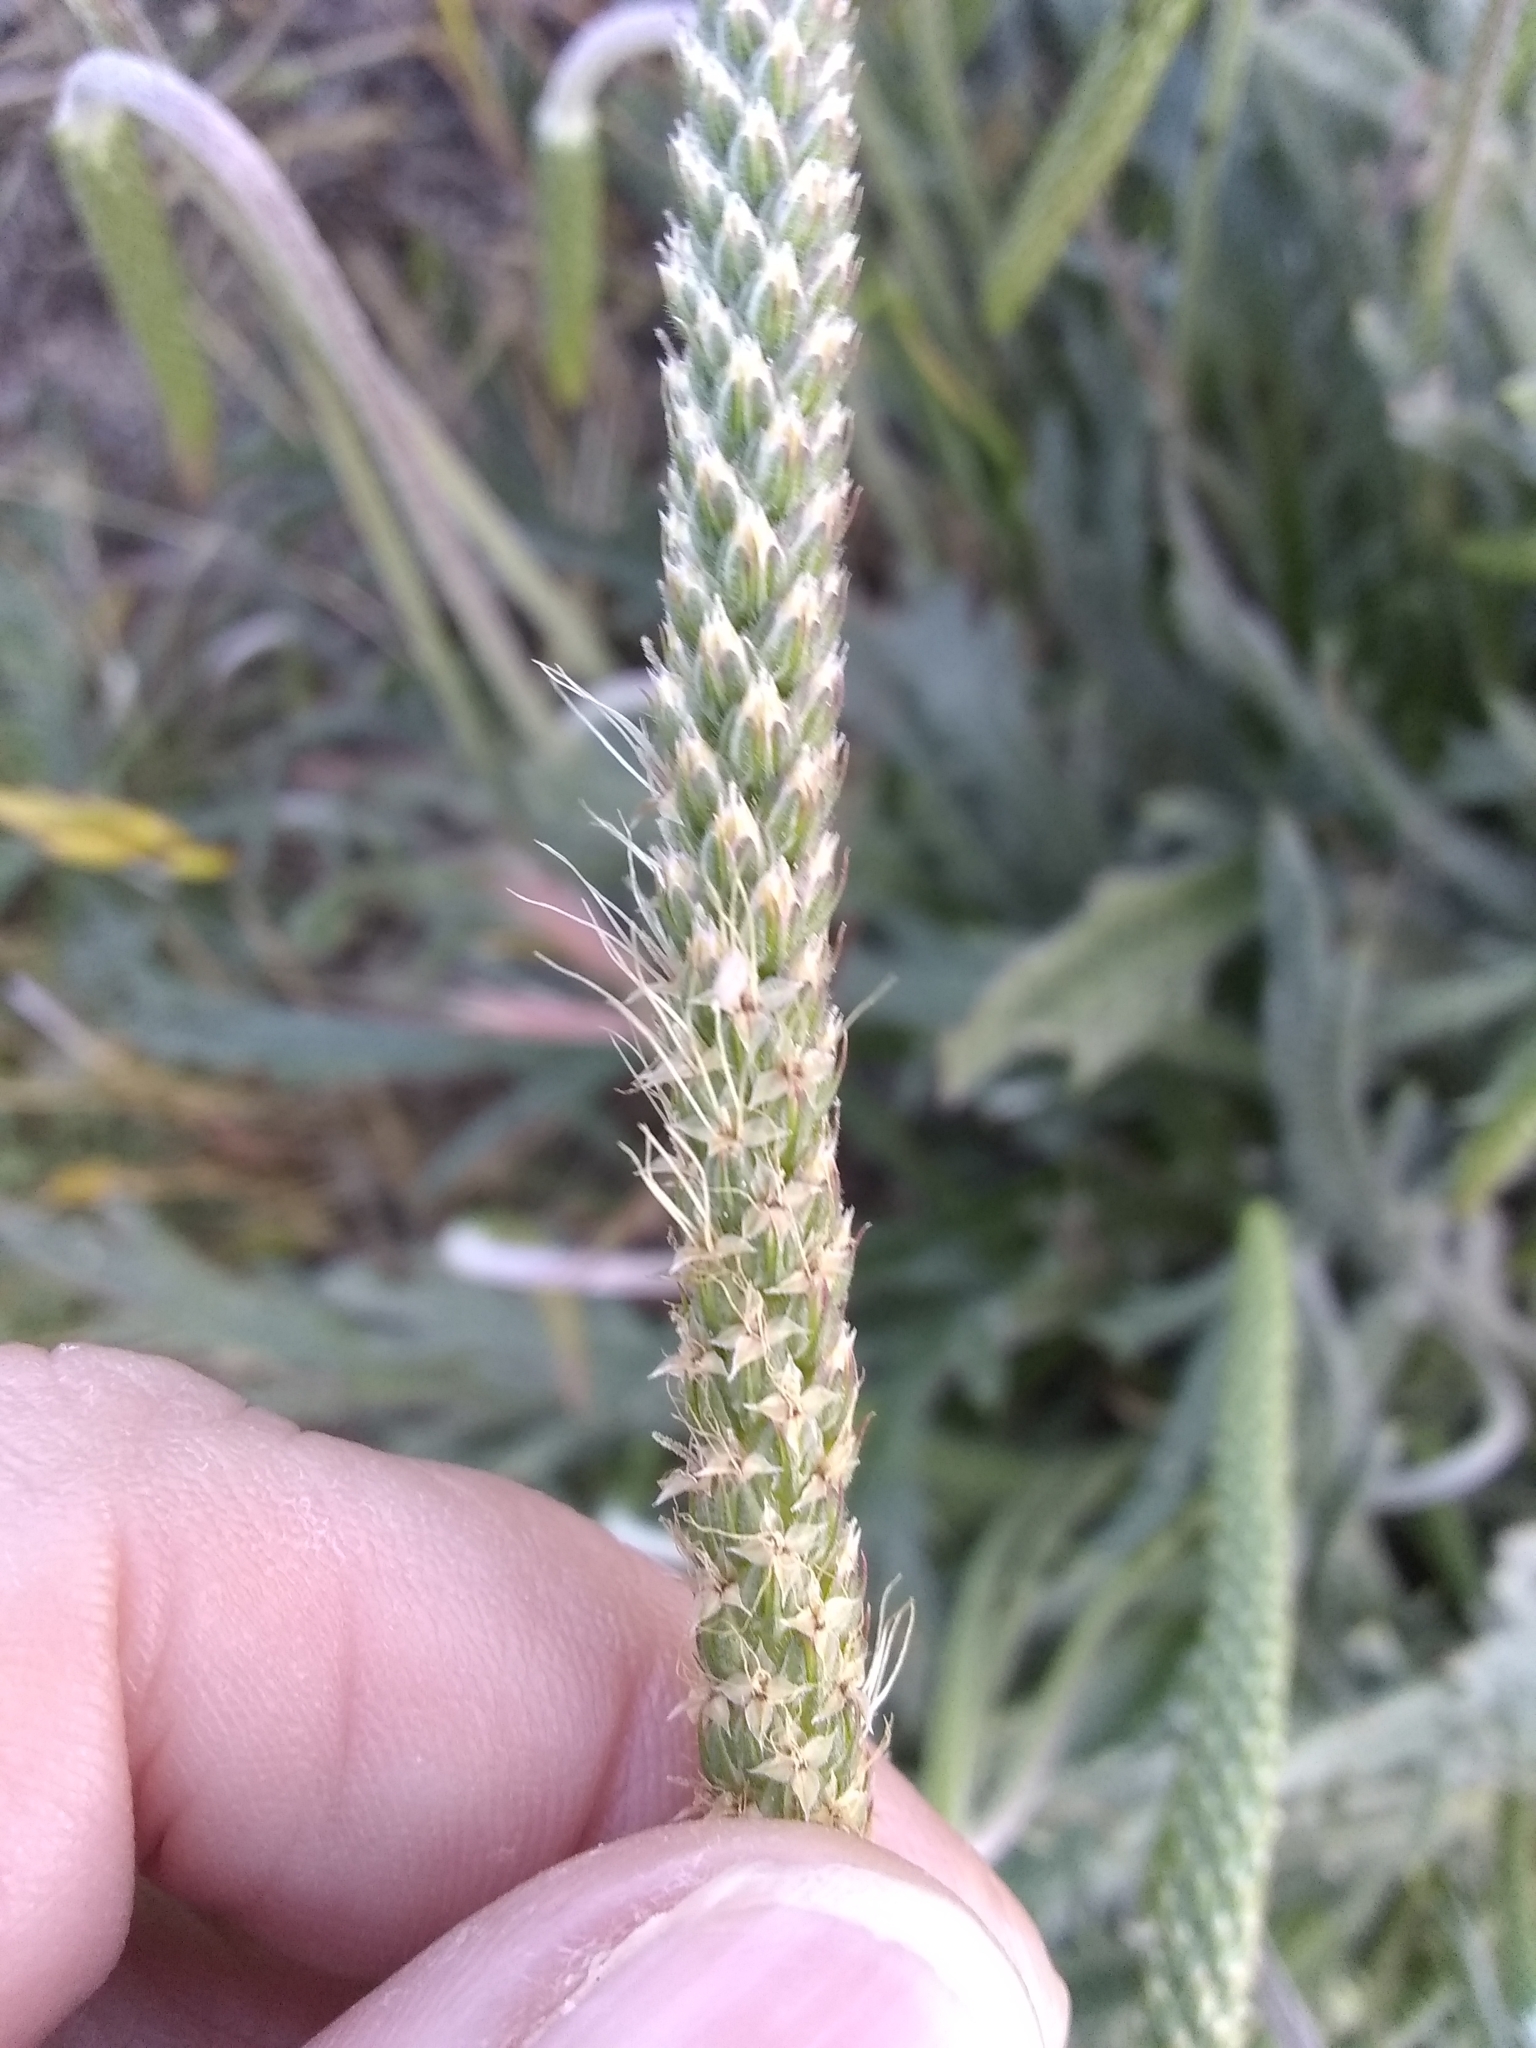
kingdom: Plantae
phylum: Tracheophyta
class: Magnoliopsida
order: Lamiales
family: Plantaginaceae
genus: Plantago
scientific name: Plantago coronopus
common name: Buck's-horn plantain
